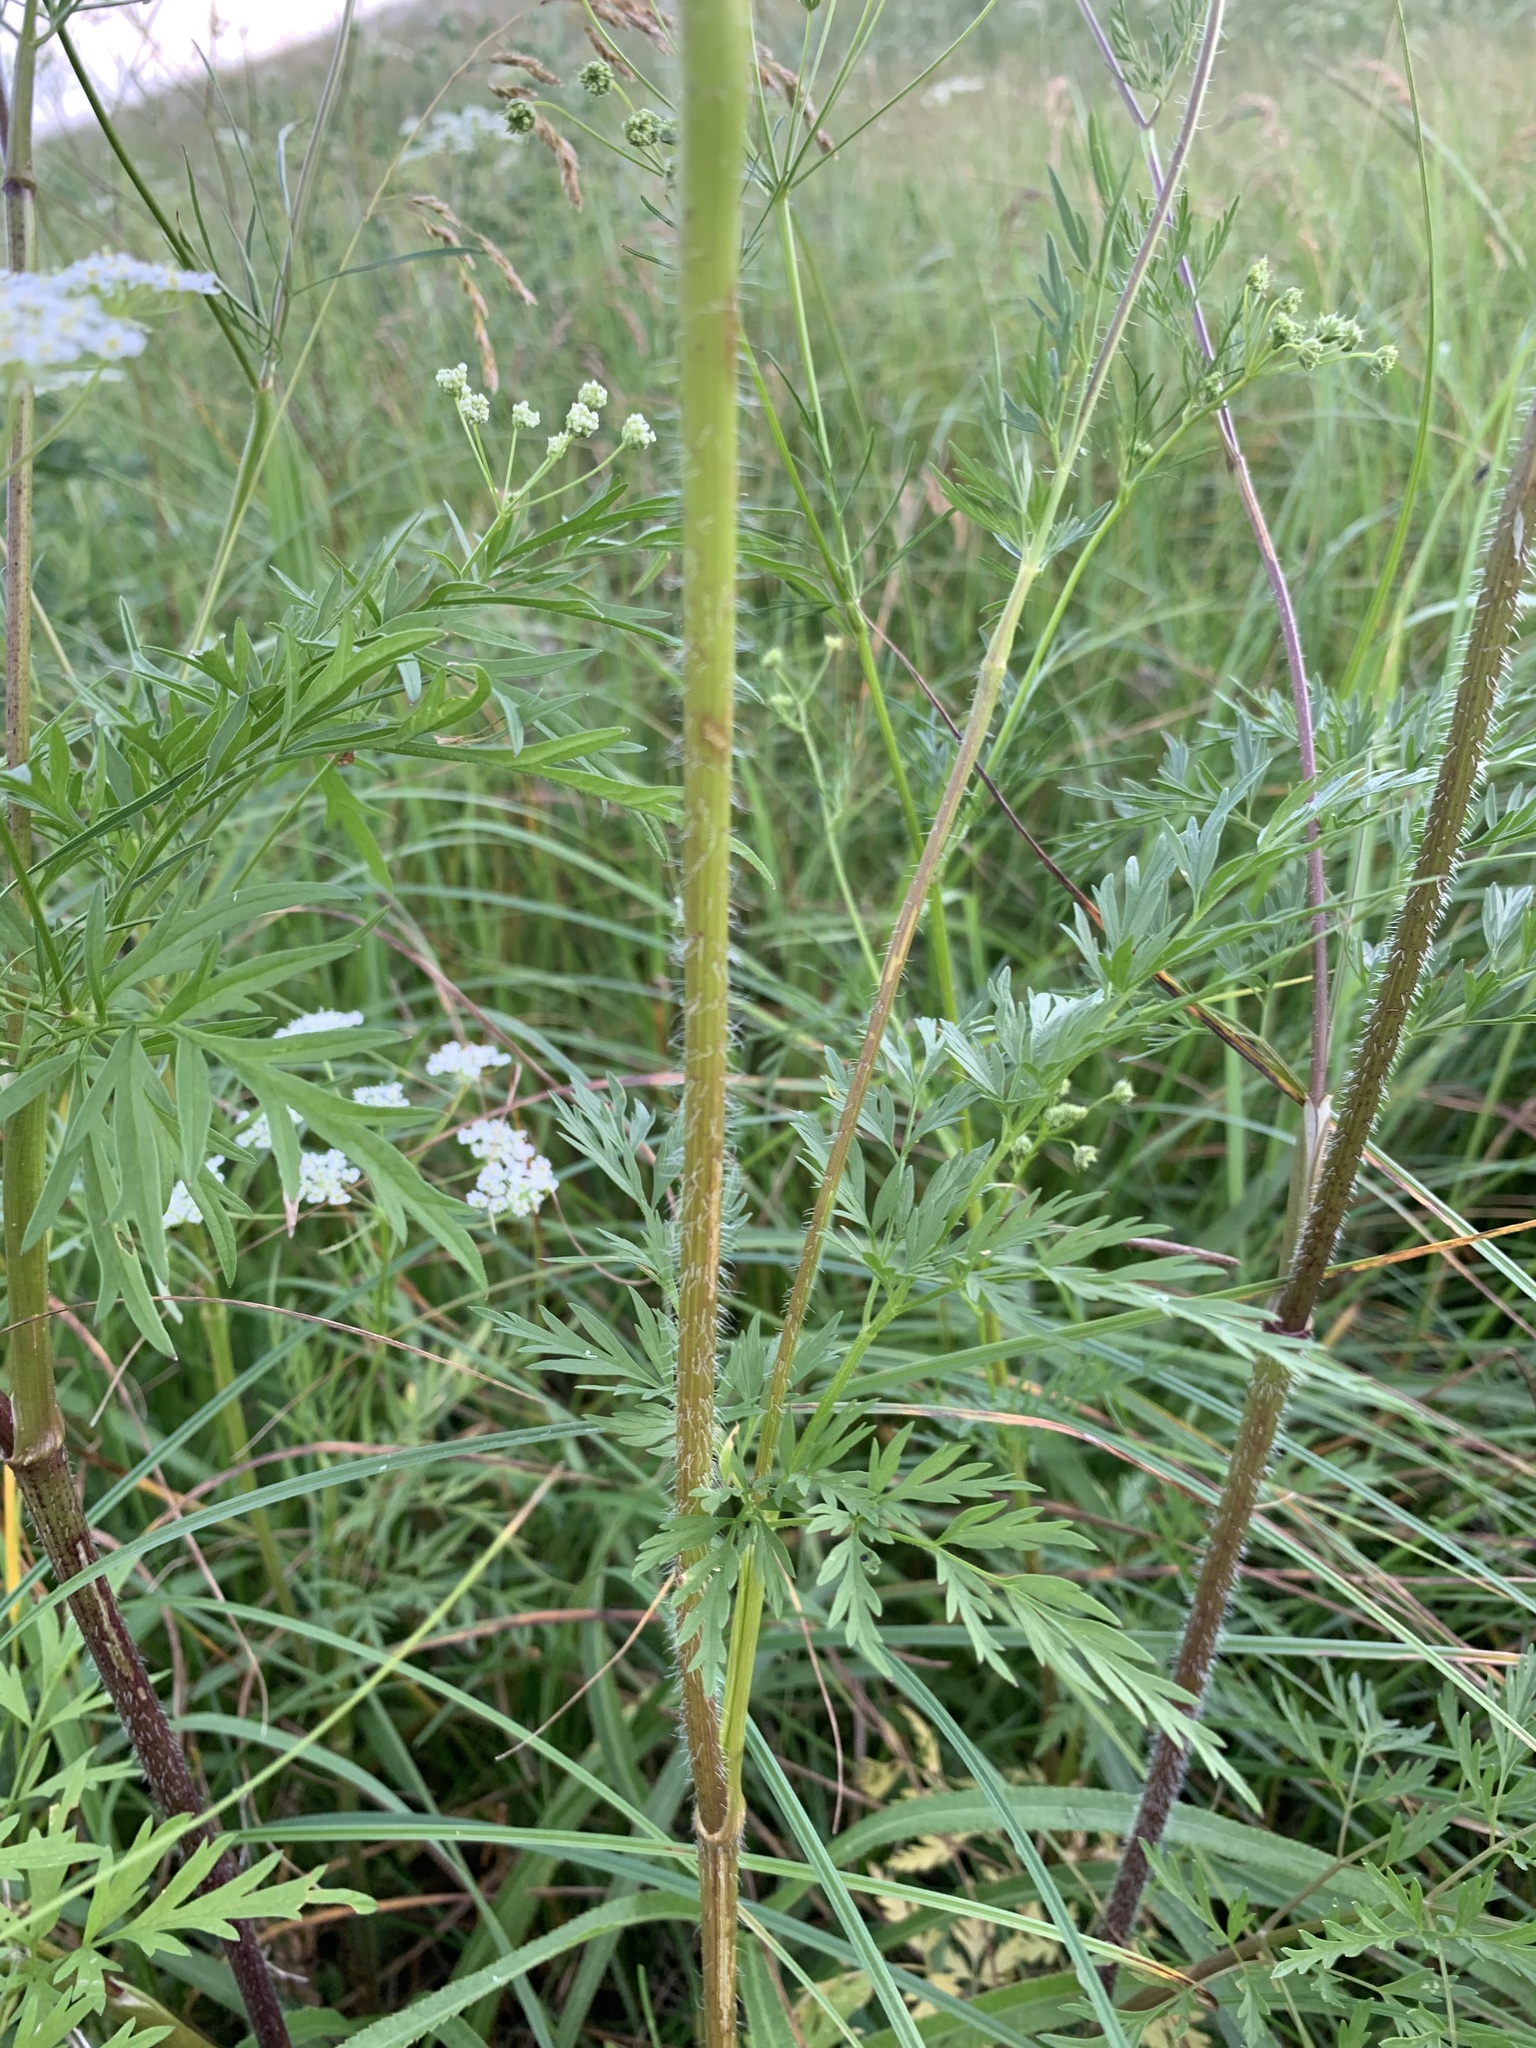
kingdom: Plantae
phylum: Tracheophyta
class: Magnoliopsida
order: Apiales
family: Apiaceae
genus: Chaerophyllum
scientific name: Chaerophyllum prescottii
